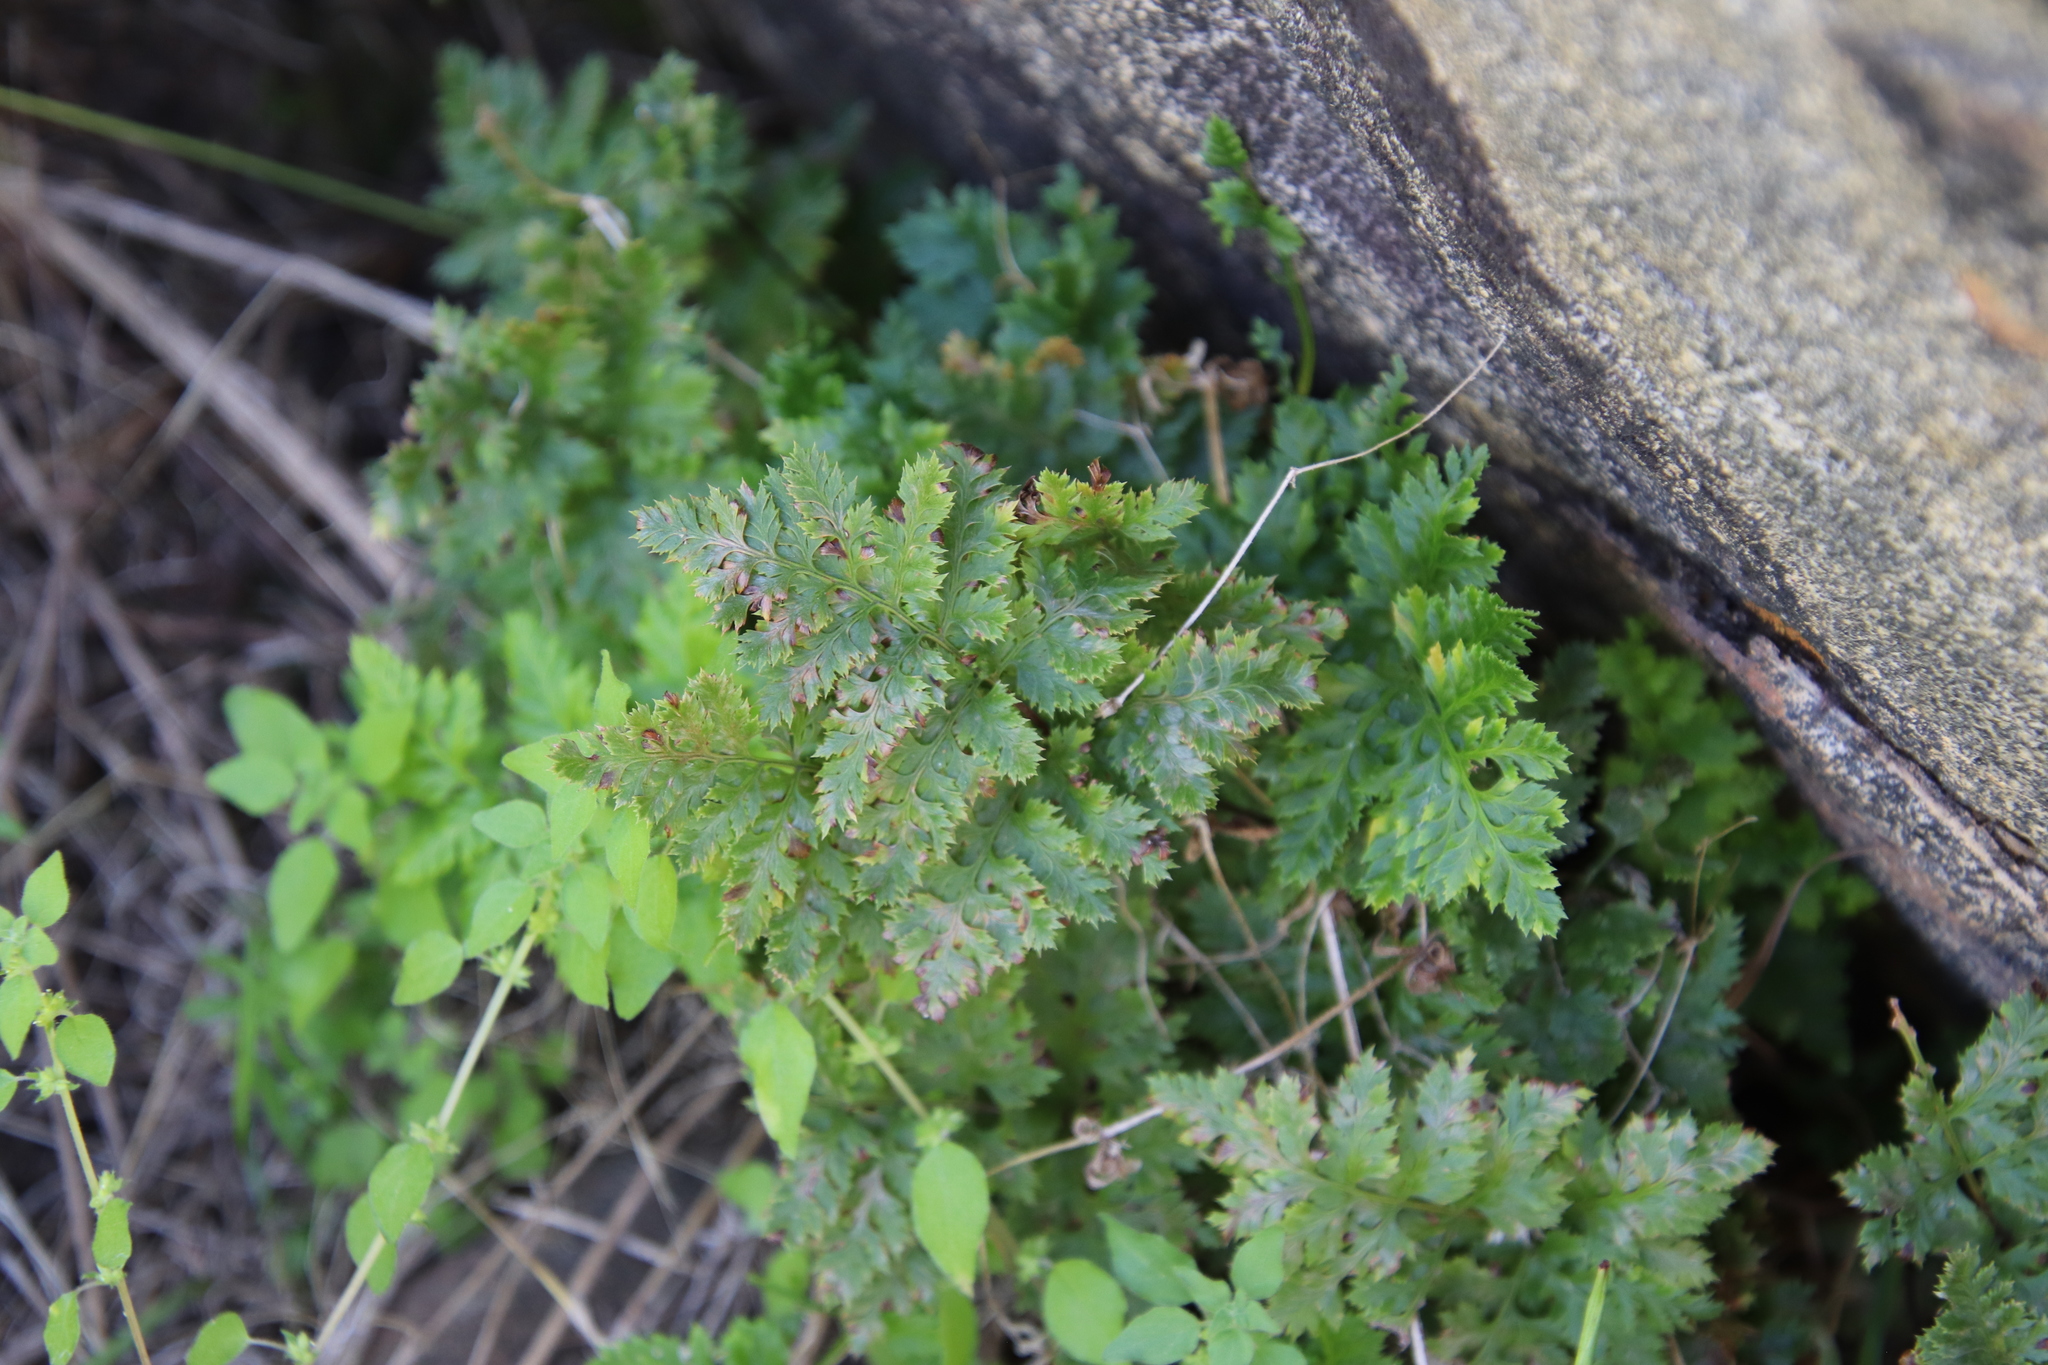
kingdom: Plantae
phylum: Tracheophyta
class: Polypodiopsida
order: Polypodiales
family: Pteridaceae
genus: Aspidotis
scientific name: Aspidotis californica
